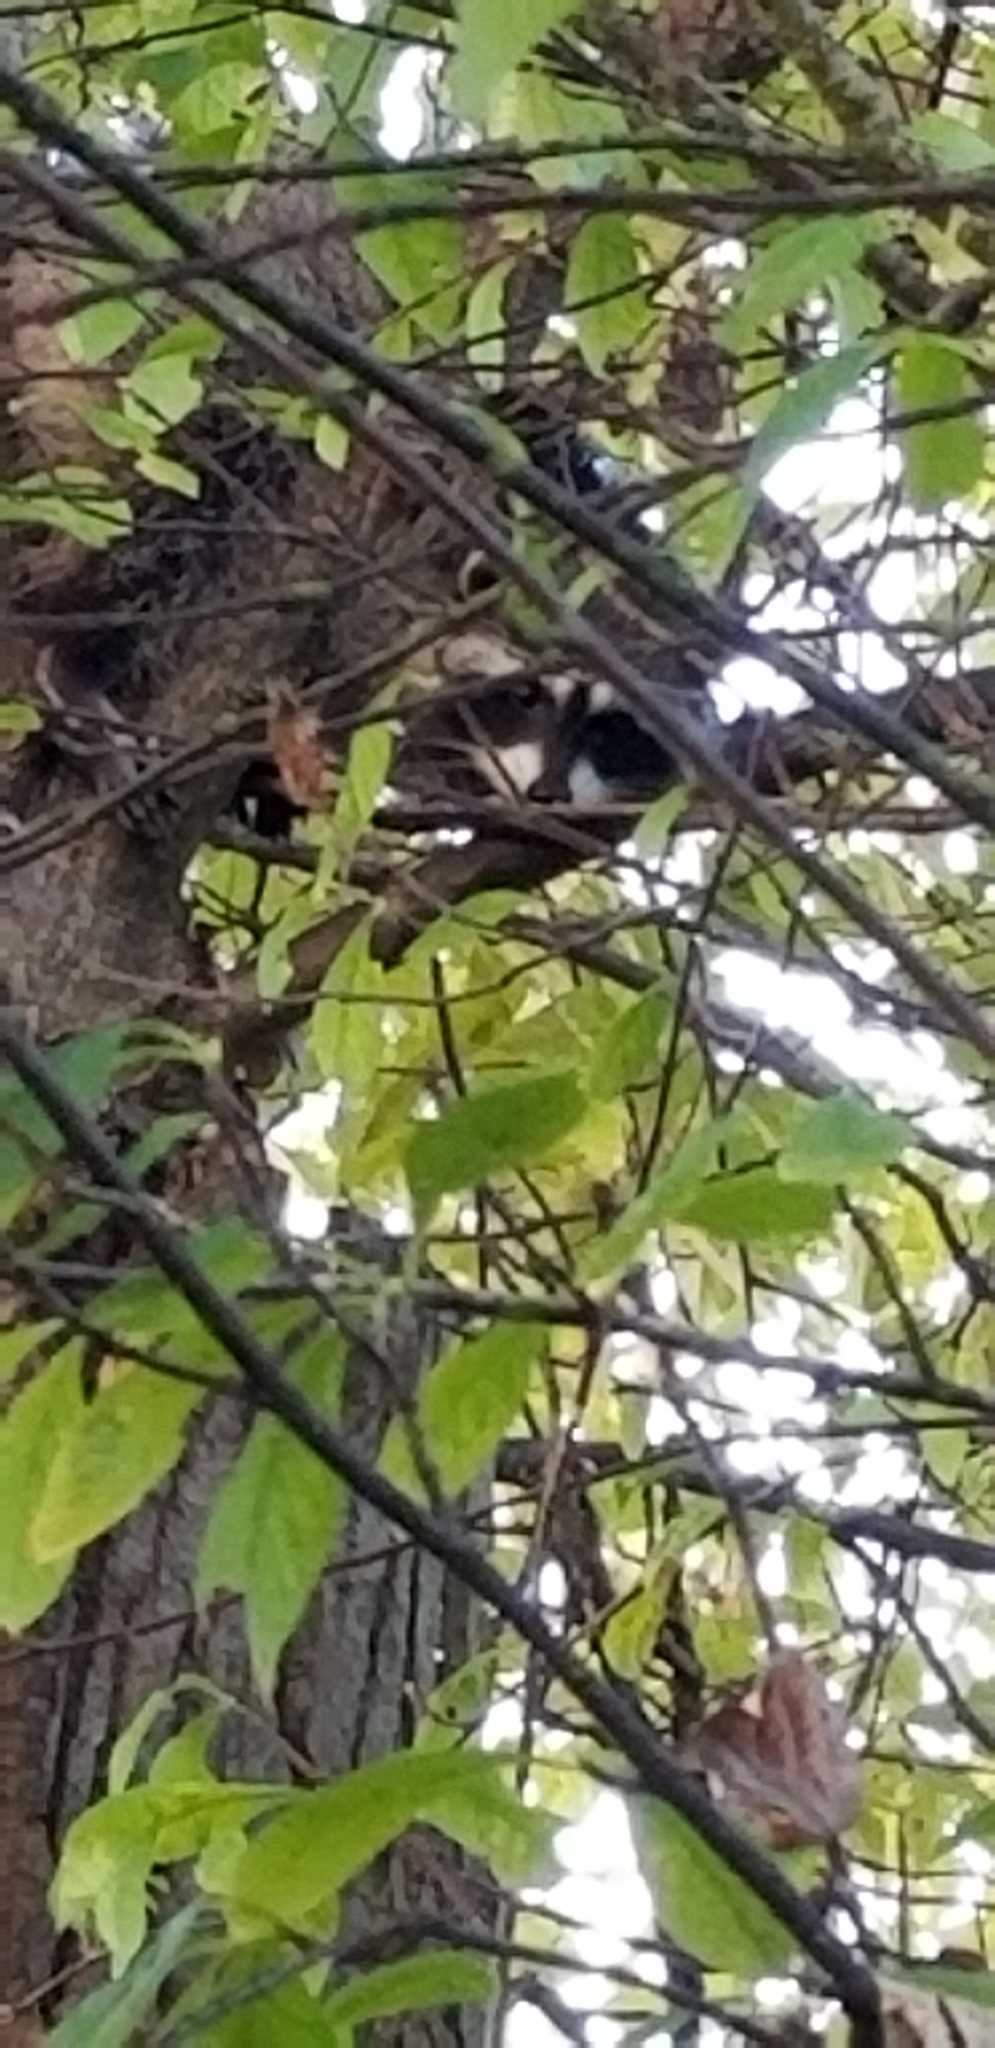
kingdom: Animalia
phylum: Chordata
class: Mammalia
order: Carnivora
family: Procyonidae
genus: Procyon
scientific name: Procyon lotor
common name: Raccoon
